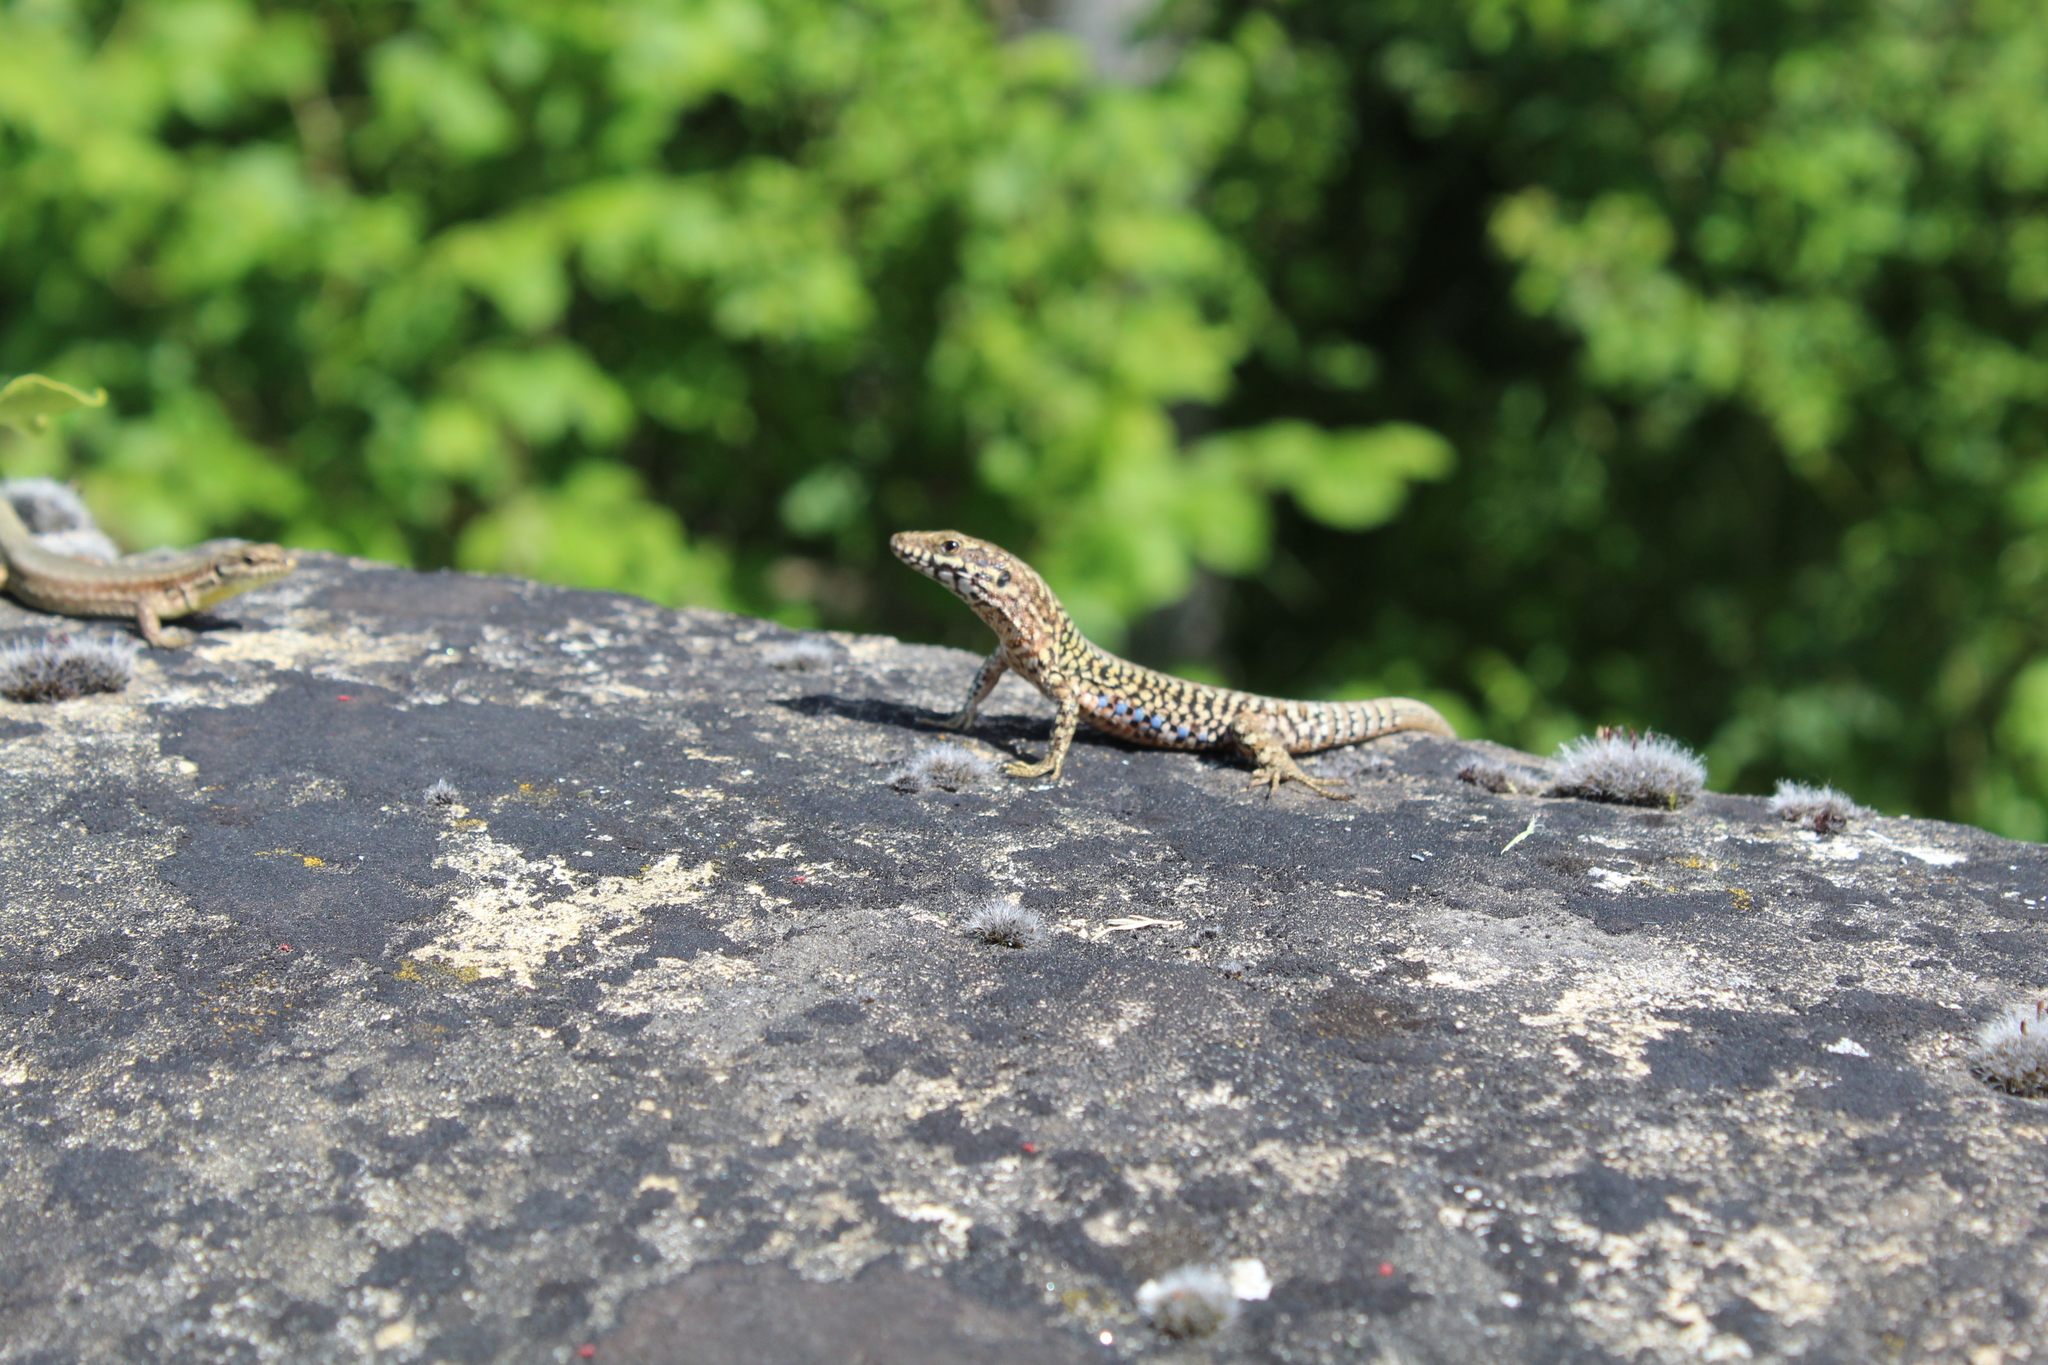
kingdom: Animalia
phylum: Chordata
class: Squamata
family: Lacertidae
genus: Podarcis
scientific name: Podarcis muralis
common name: Common wall lizard
